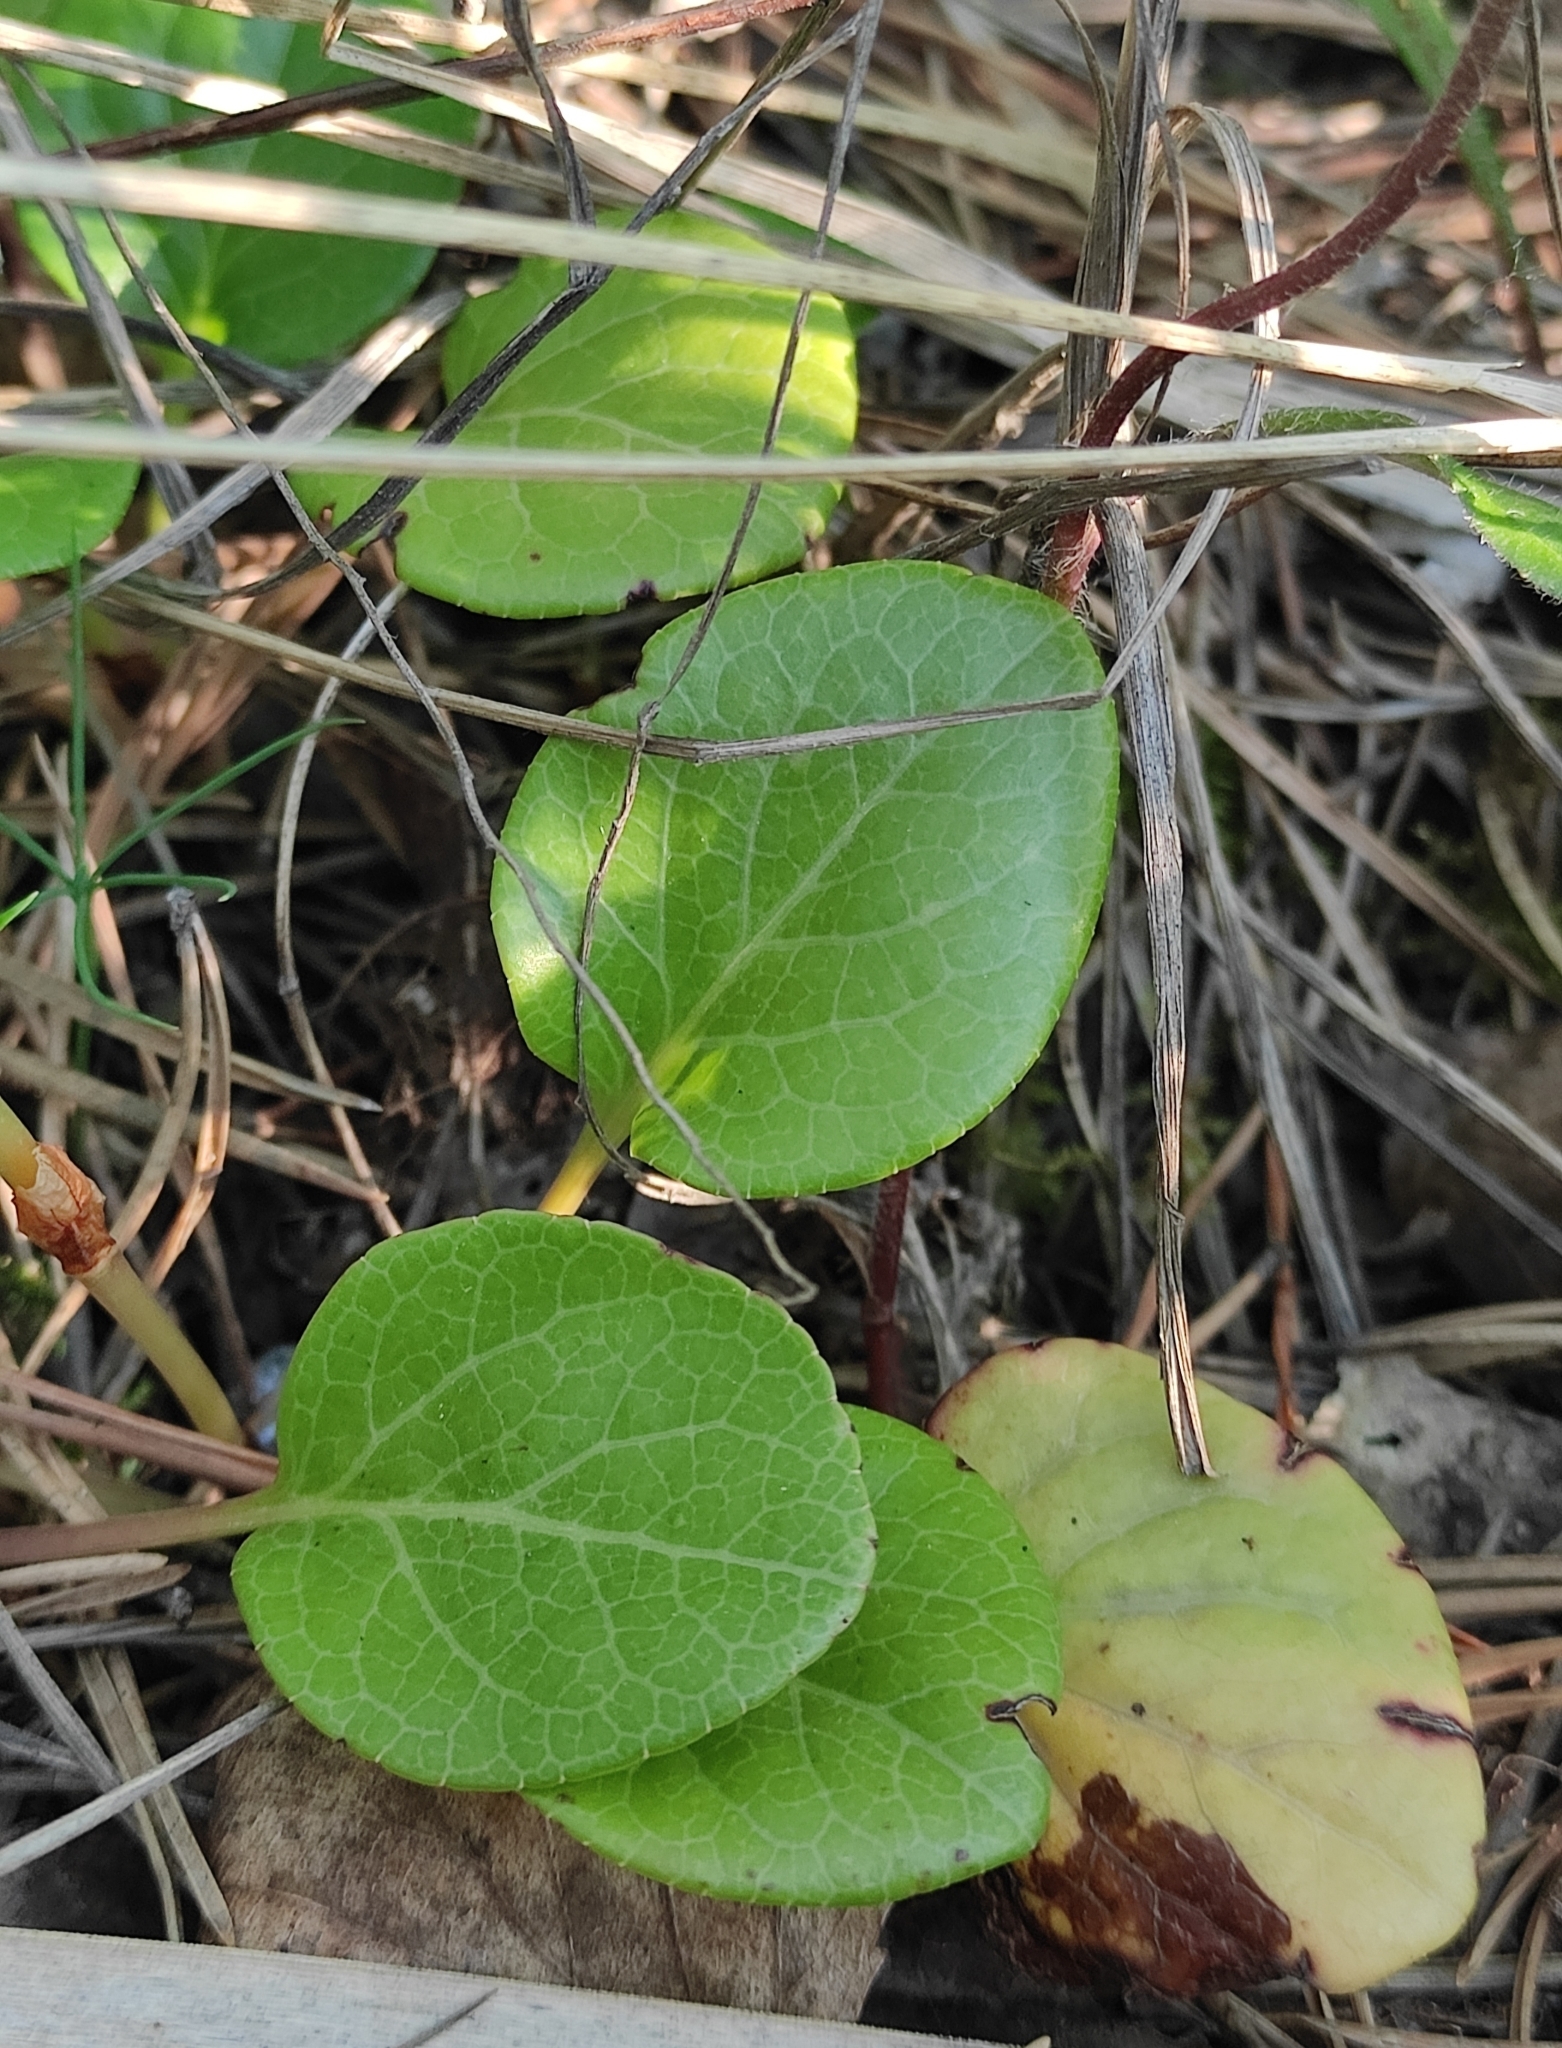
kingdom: Plantae
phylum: Tracheophyta
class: Magnoliopsida
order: Ericales
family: Ericaceae
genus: Pyrola
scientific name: Pyrola rotundifolia
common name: Round-leaved wintergreen
